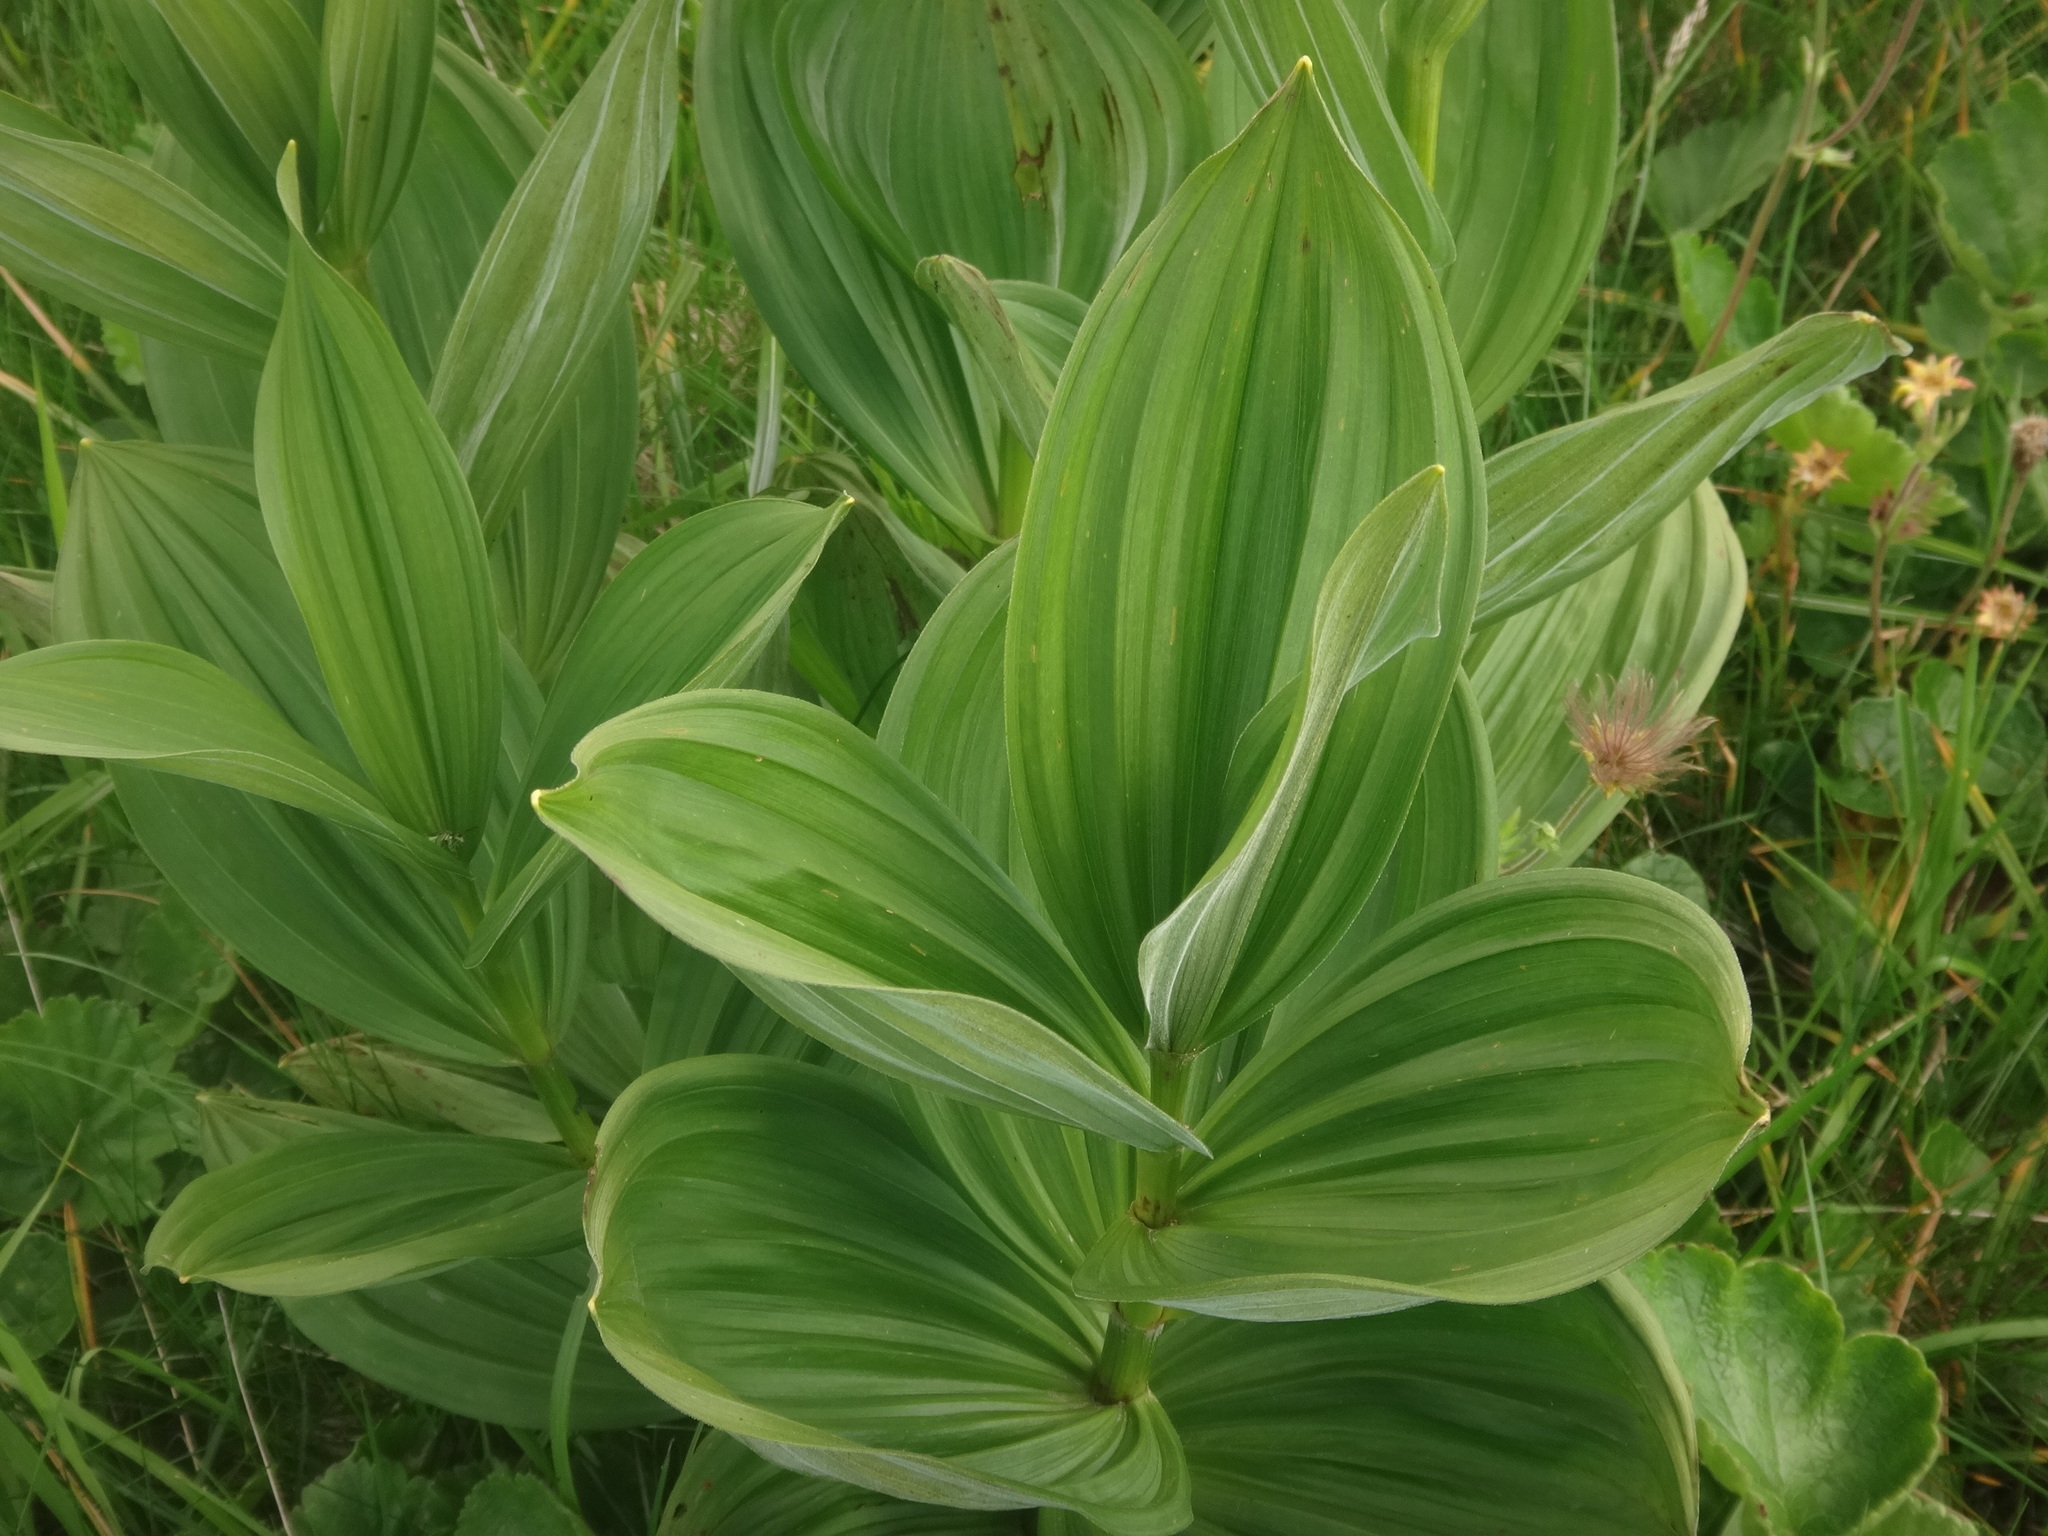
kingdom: Plantae
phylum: Tracheophyta
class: Liliopsida
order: Liliales
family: Melanthiaceae
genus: Veratrum
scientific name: Veratrum album
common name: White veratrum
